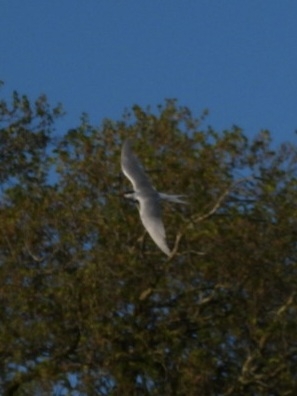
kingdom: Animalia
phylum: Chordata
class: Aves
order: Charadriiformes
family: Laridae
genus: Sterna
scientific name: Sterna hirundo
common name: Common tern
